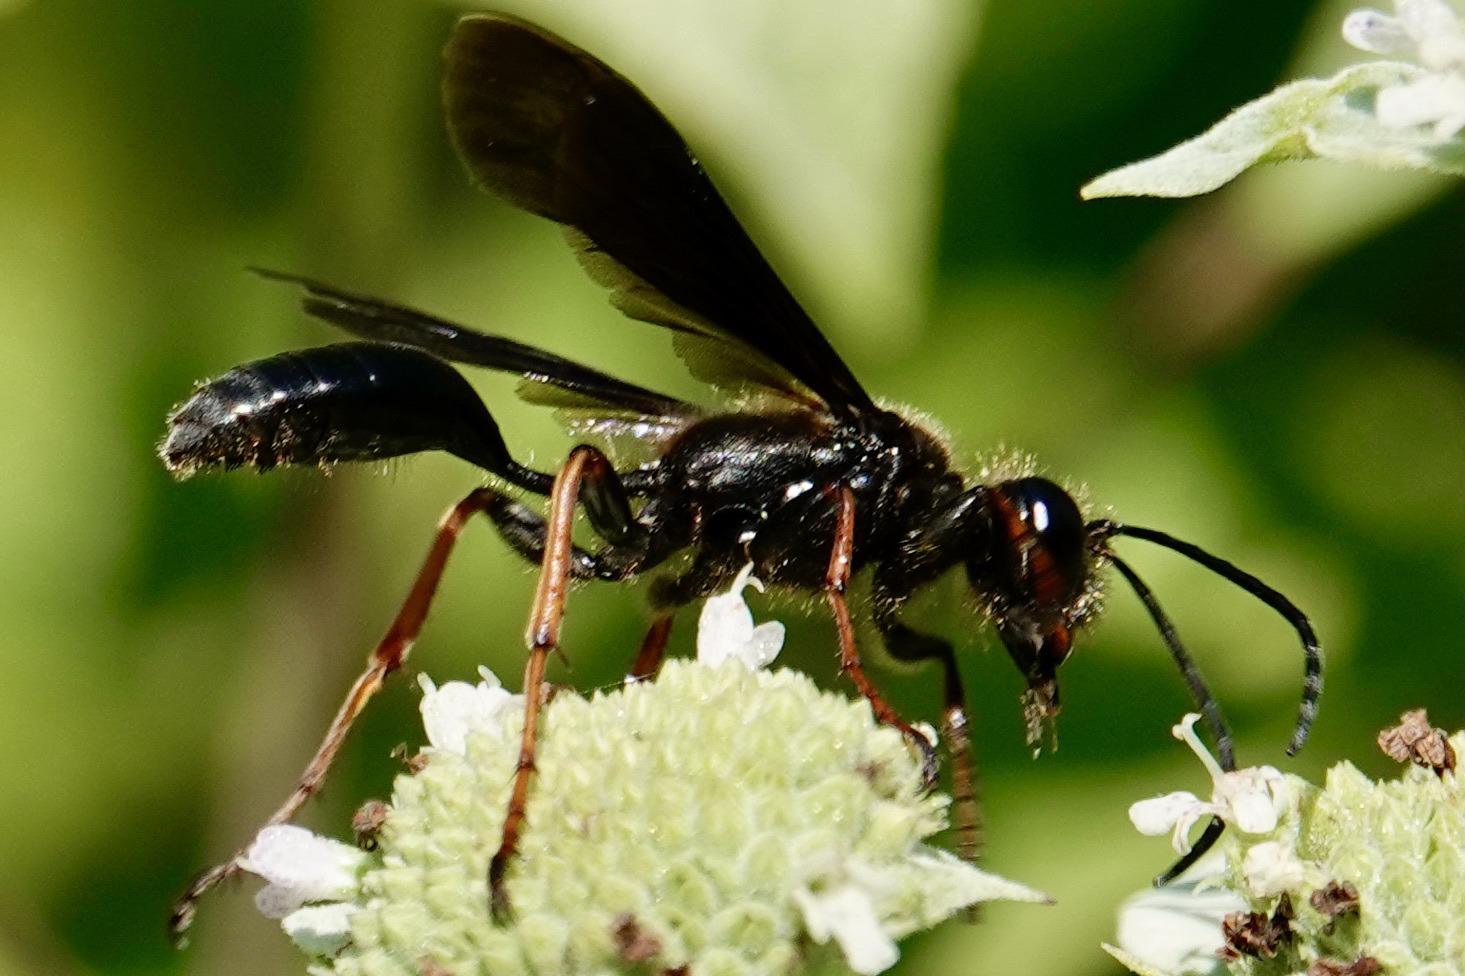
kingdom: Animalia
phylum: Arthropoda
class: Insecta
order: Hymenoptera
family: Sphecidae
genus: Isodontia
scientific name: Isodontia auripes
